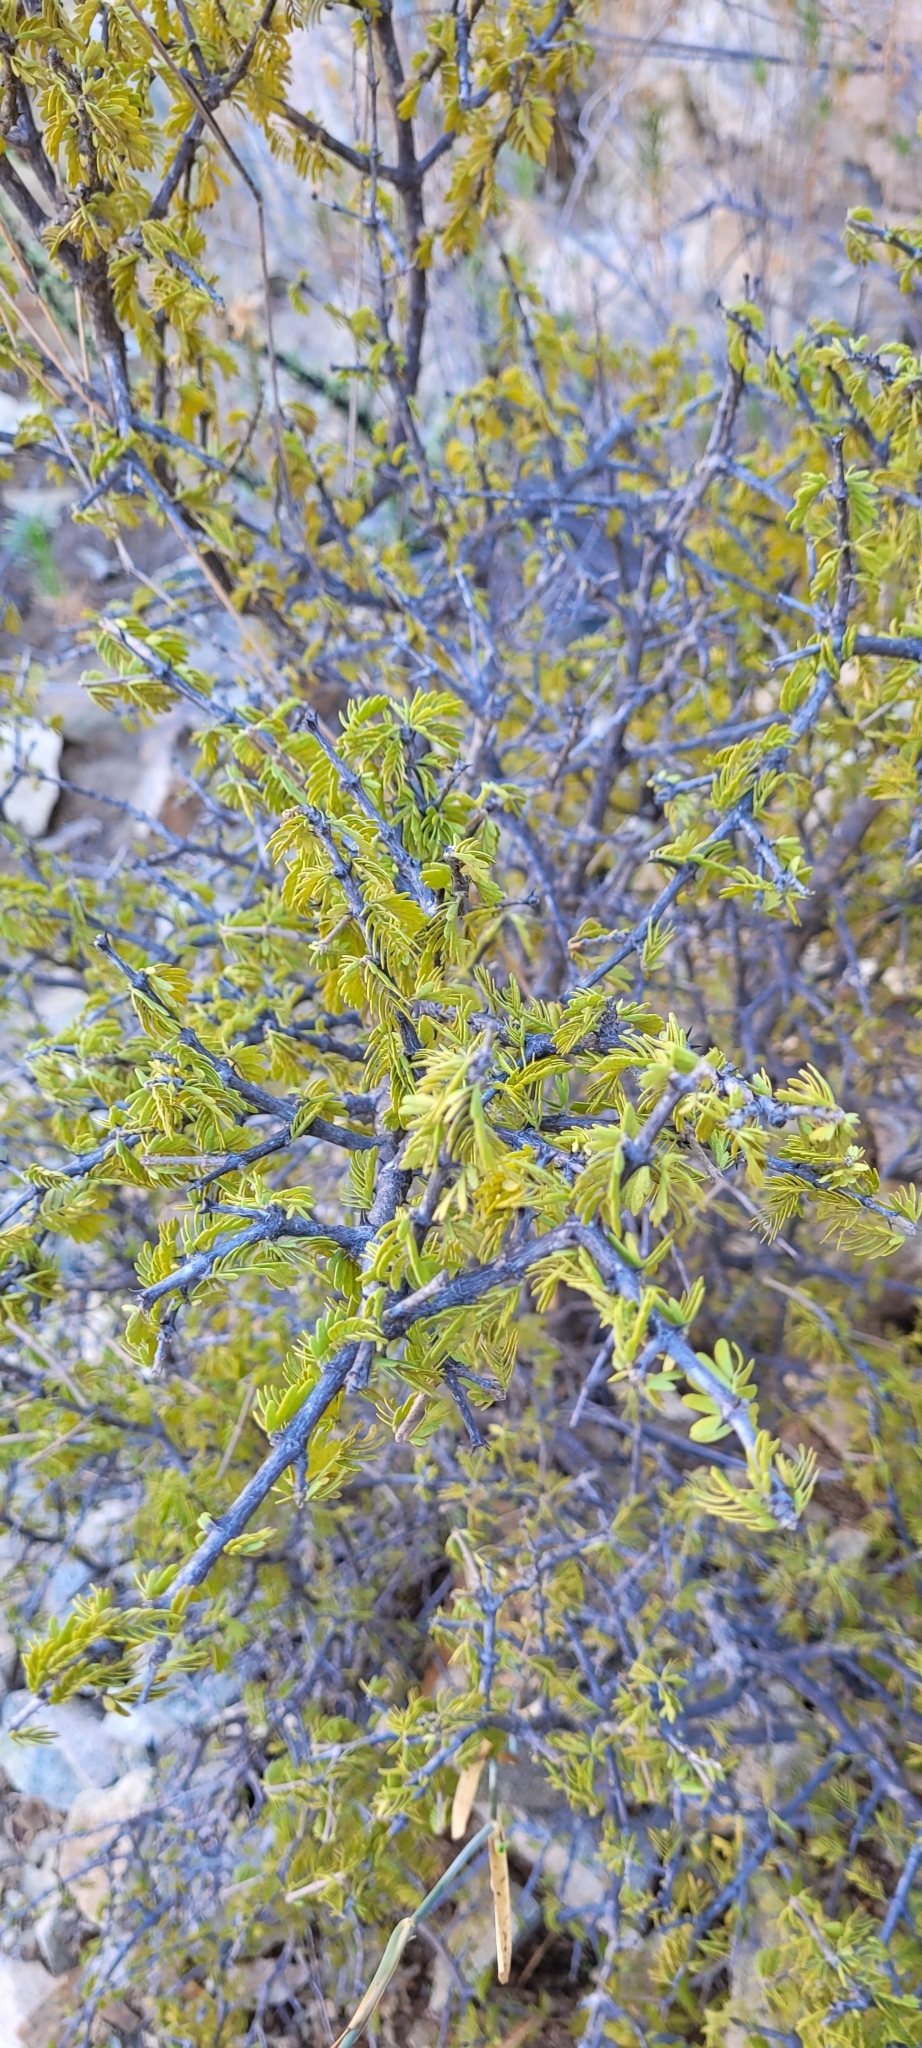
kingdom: Plantae
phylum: Tracheophyta
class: Magnoliopsida
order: Zygophyllales
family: Zygophyllaceae
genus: Porlieria
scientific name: Porlieria chilensis
